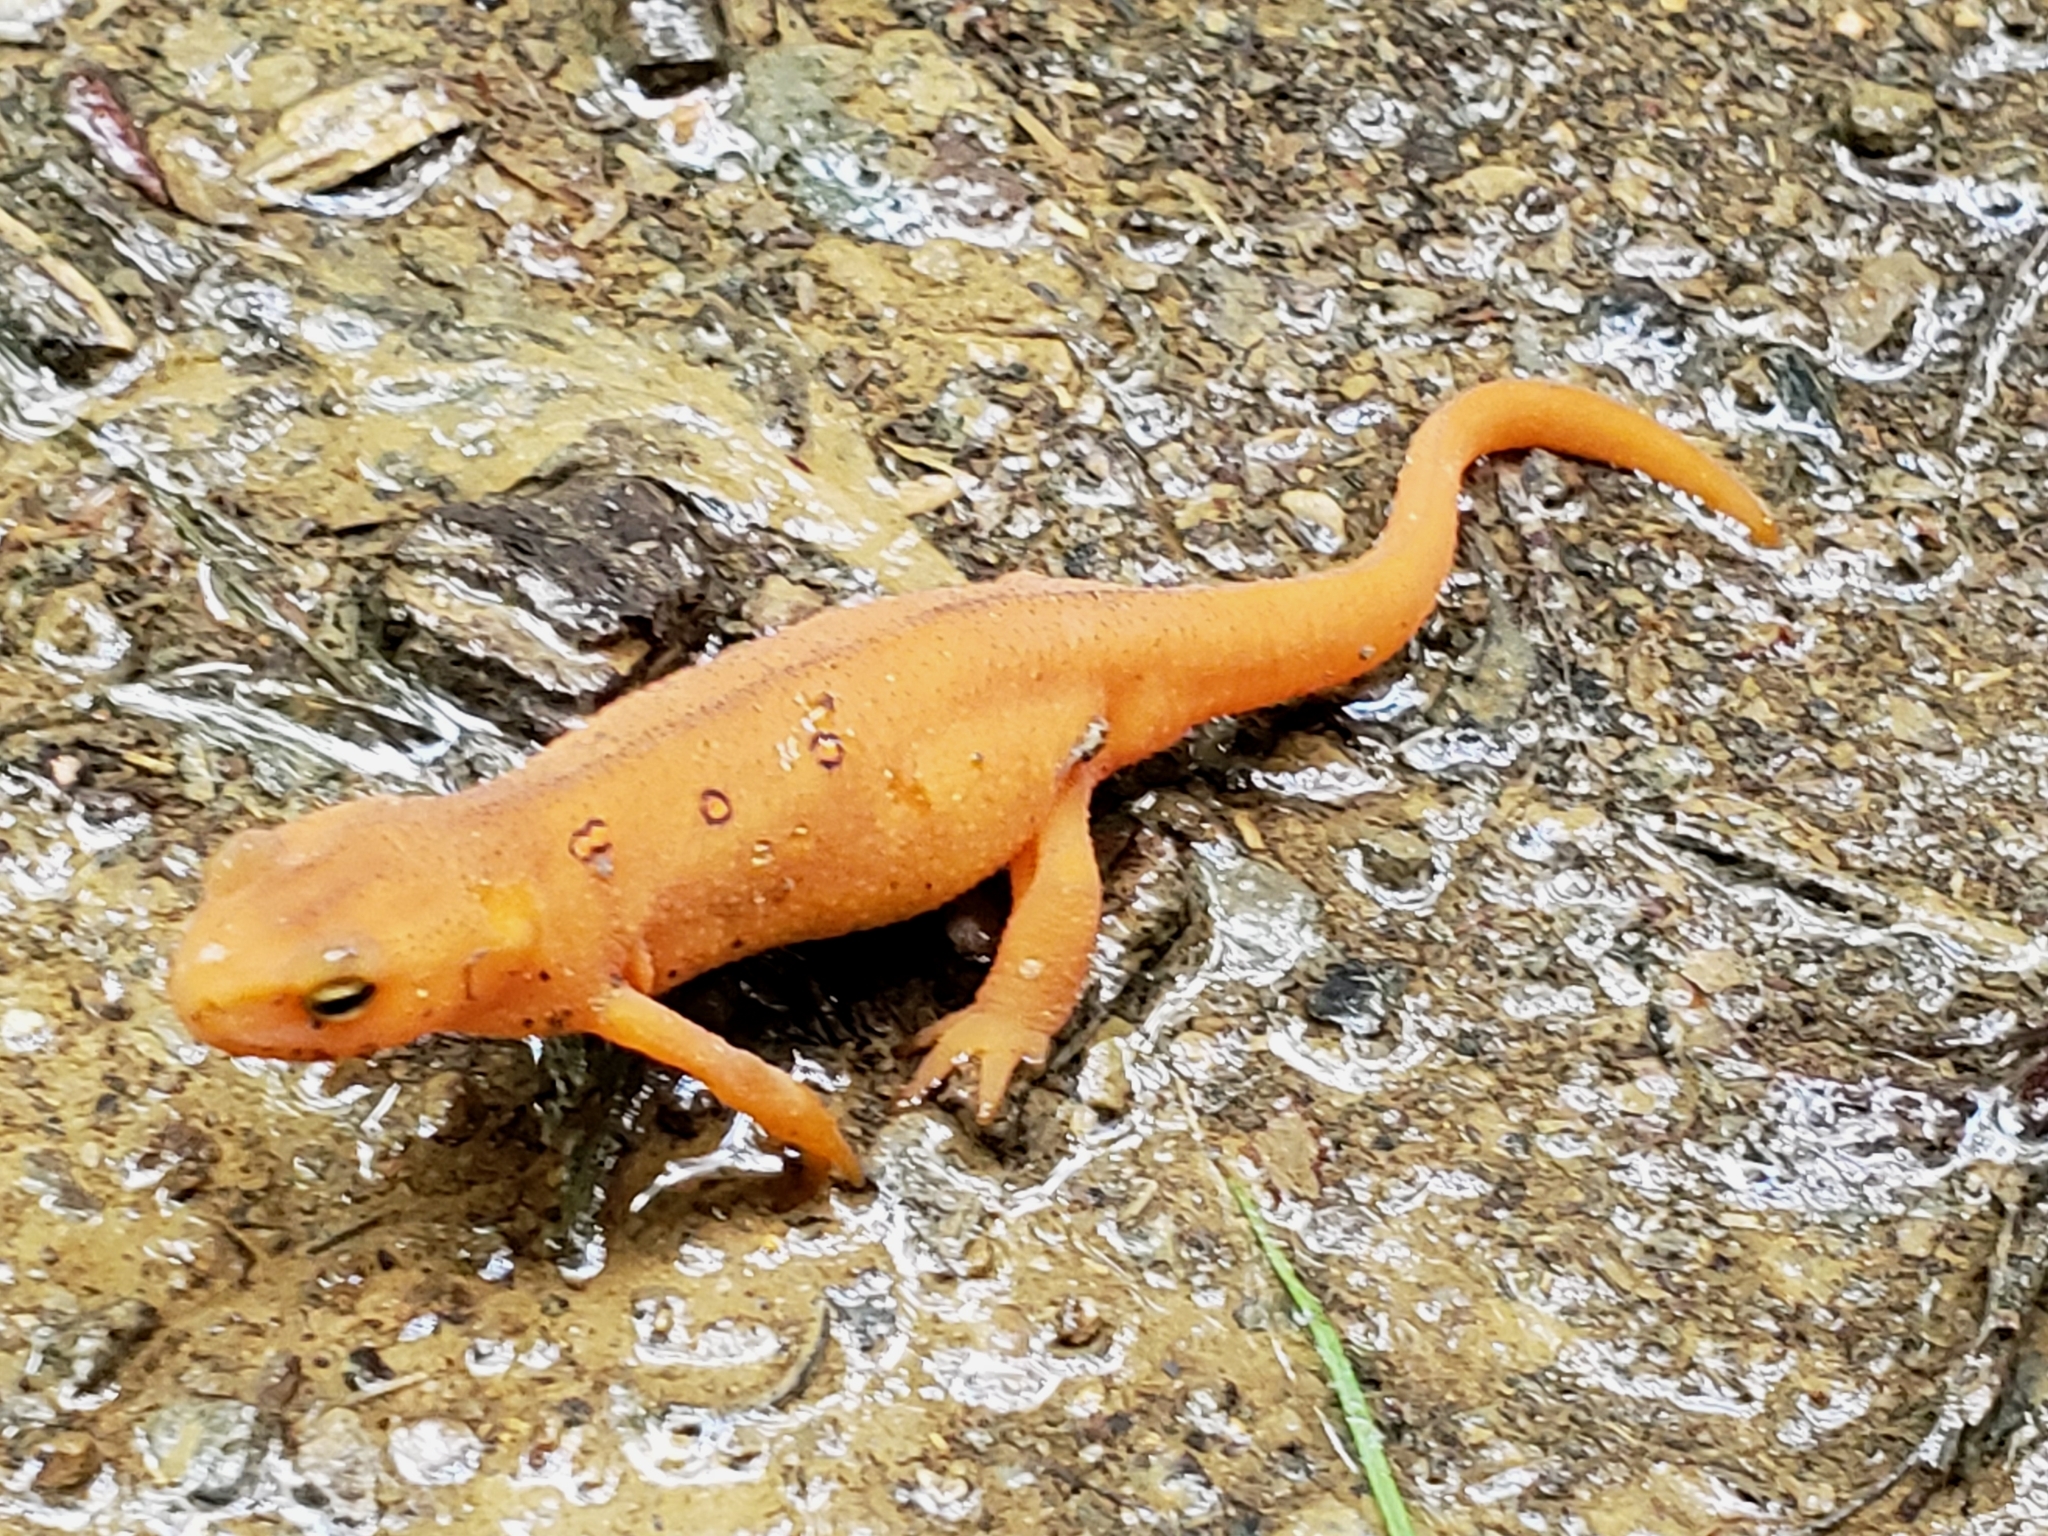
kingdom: Animalia
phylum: Chordata
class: Amphibia
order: Caudata
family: Salamandridae
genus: Notophthalmus
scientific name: Notophthalmus viridescens
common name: Eastern newt
